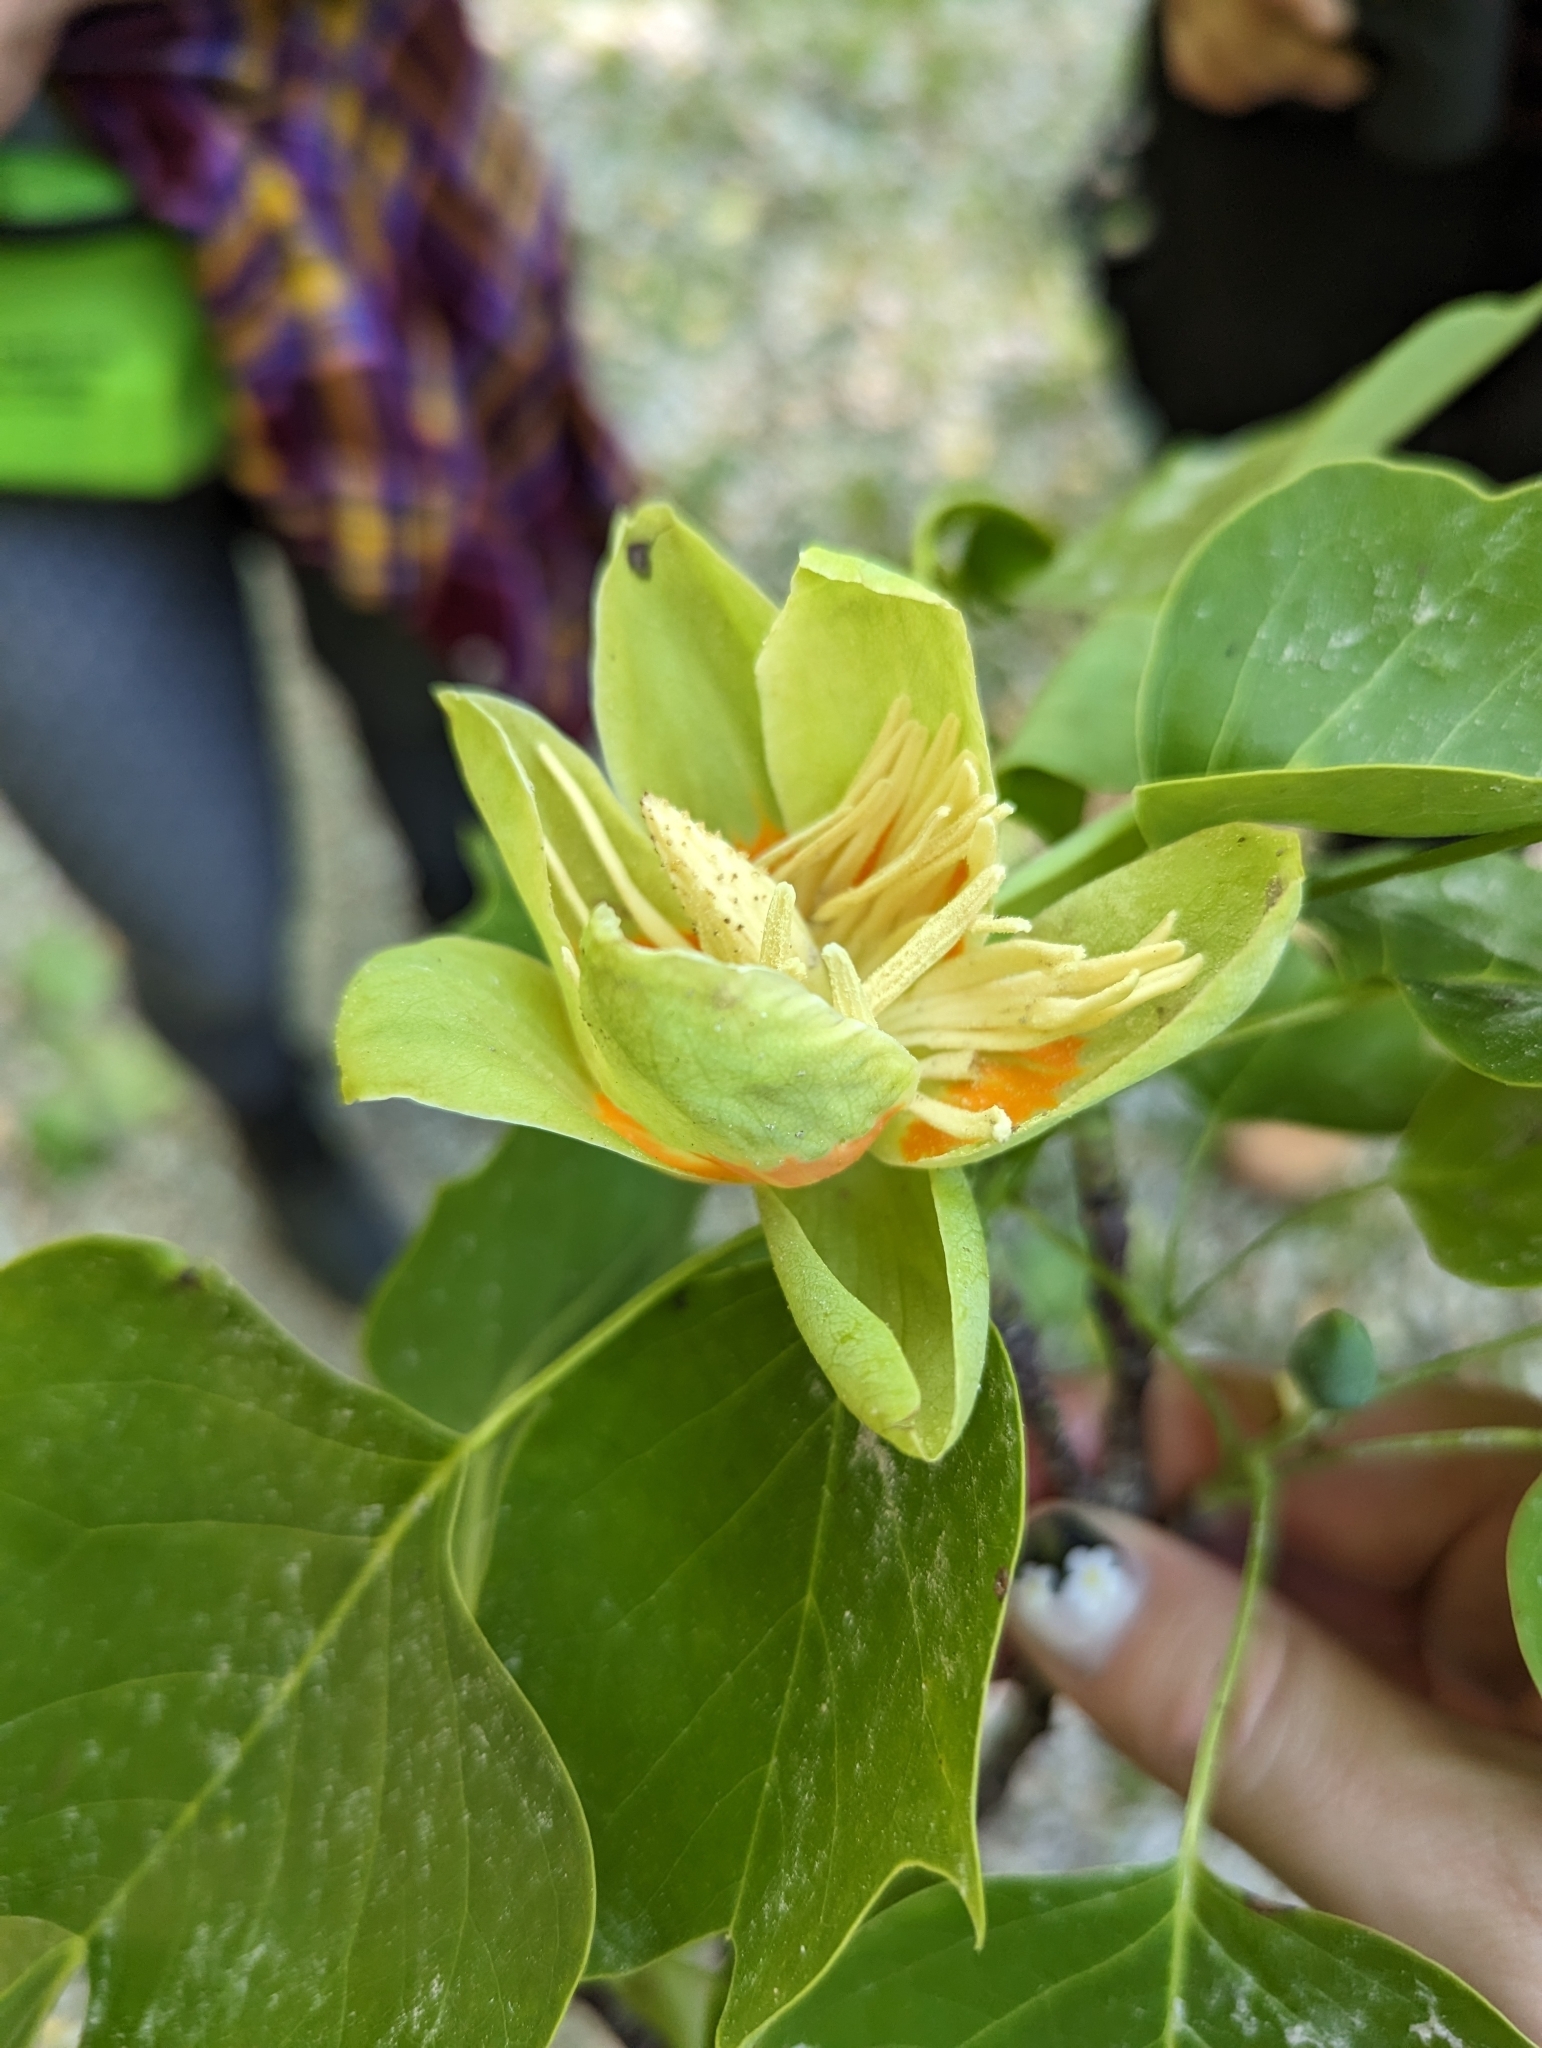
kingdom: Plantae
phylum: Tracheophyta
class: Magnoliopsida
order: Magnoliales
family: Magnoliaceae
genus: Liriodendron
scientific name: Liriodendron tulipifera
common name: Tulip tree
